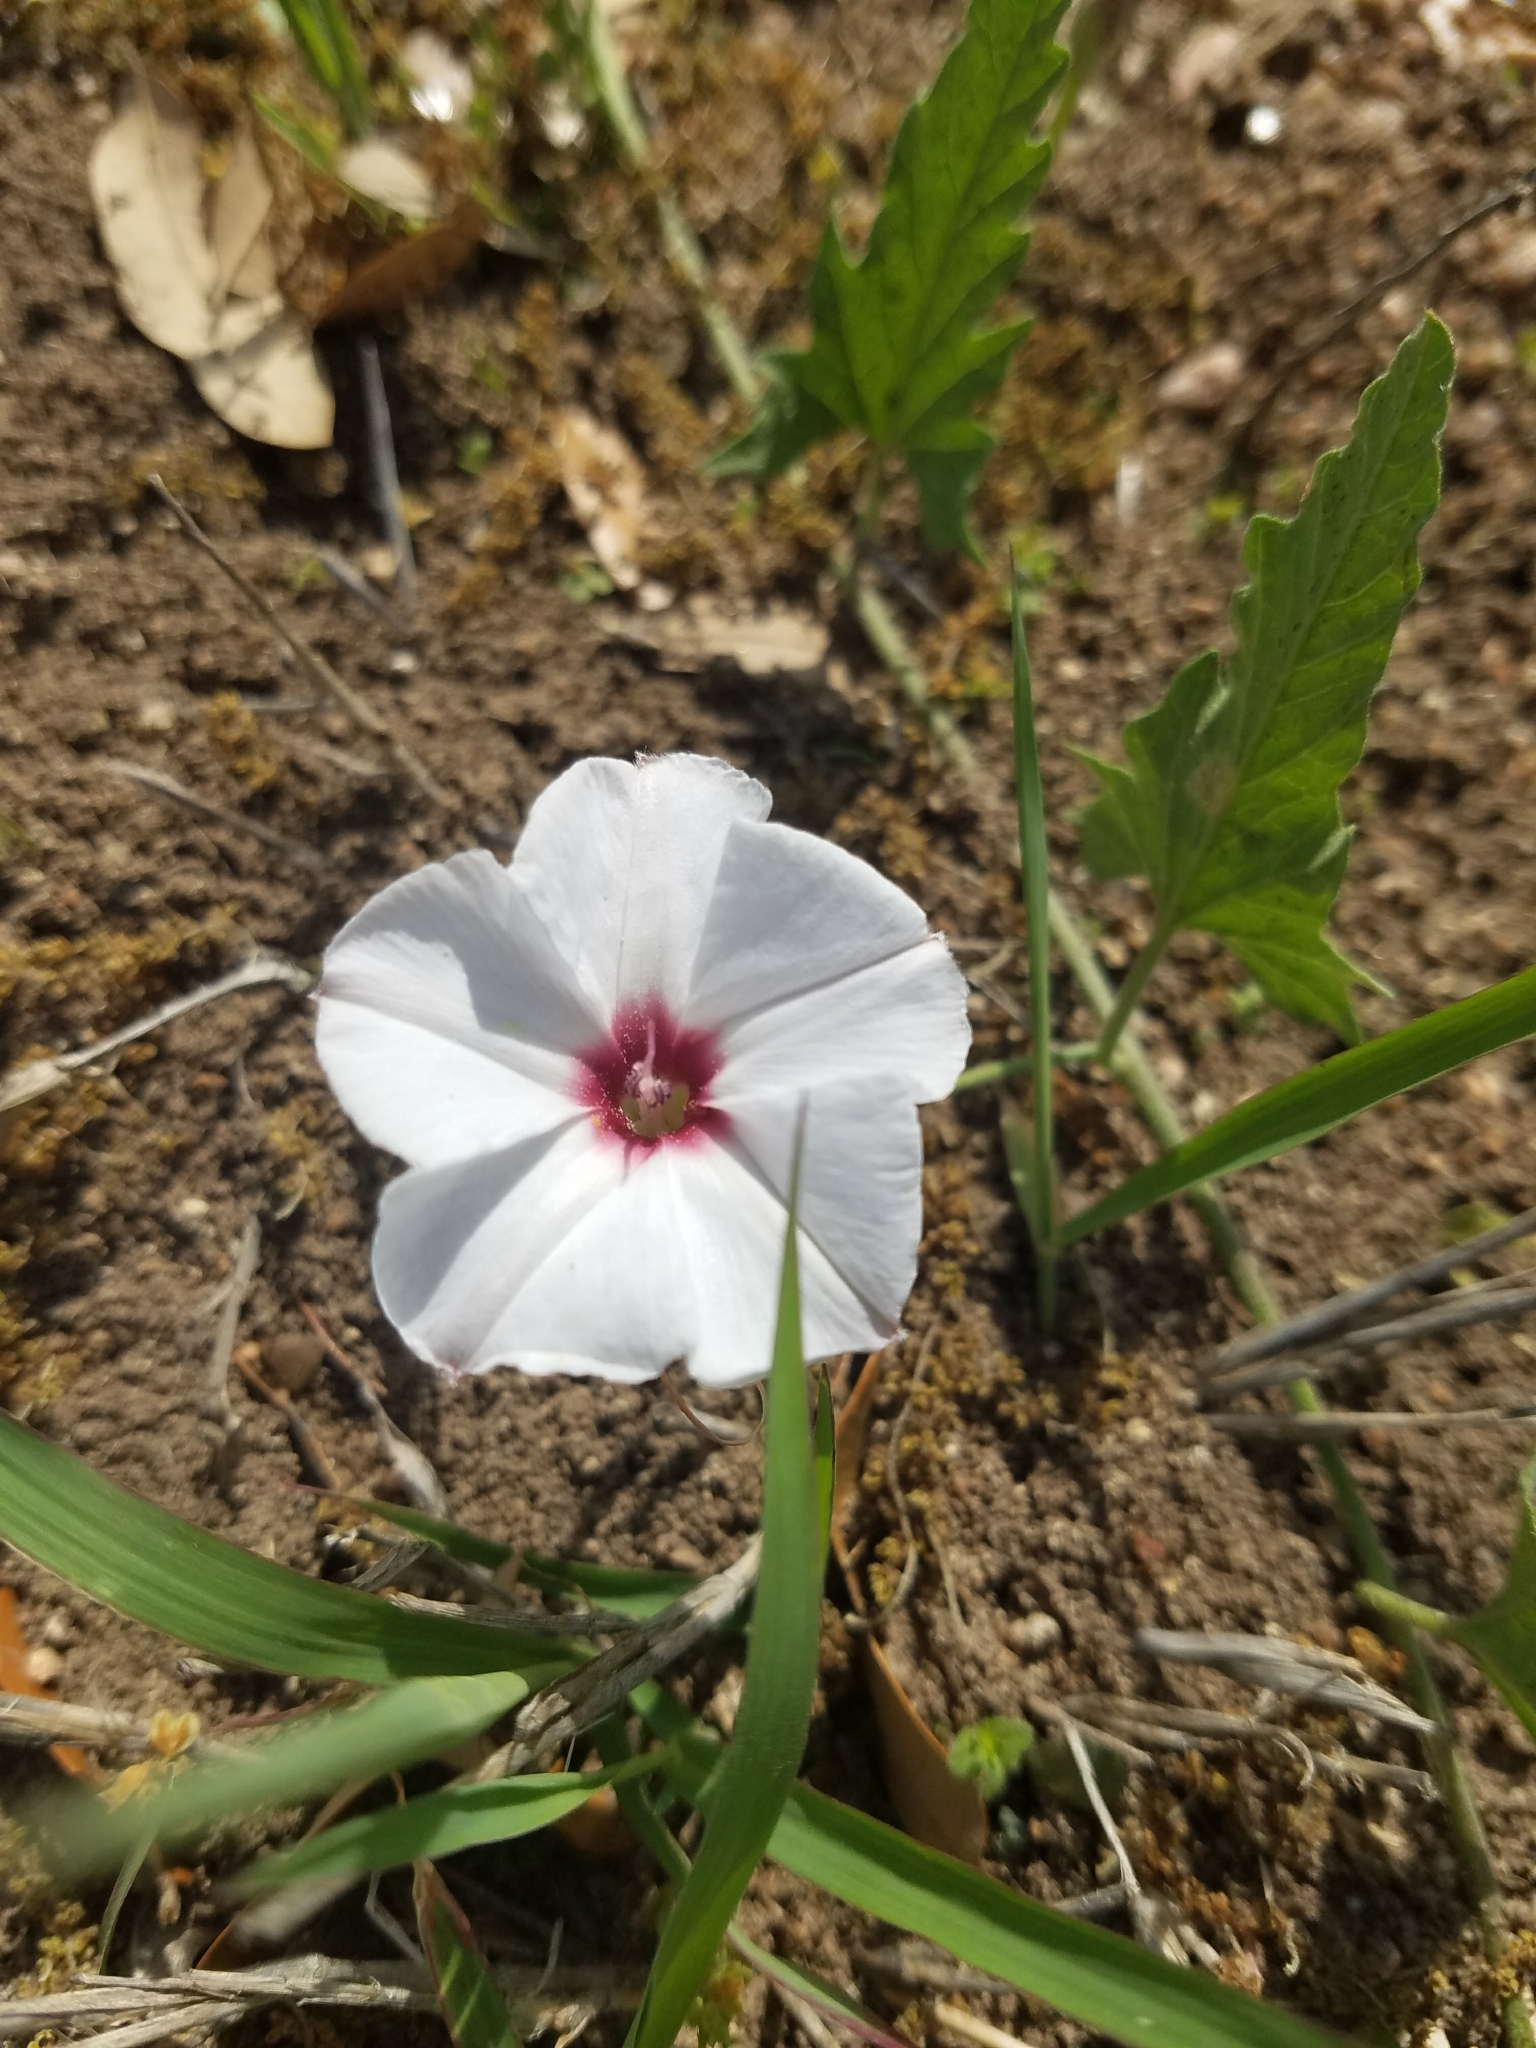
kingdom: Plantae
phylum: Tracheophyta
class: Magnoliopsida
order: Solanales
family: Convolvulaceae
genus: Convolvulus
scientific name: Convolvulus equitans
